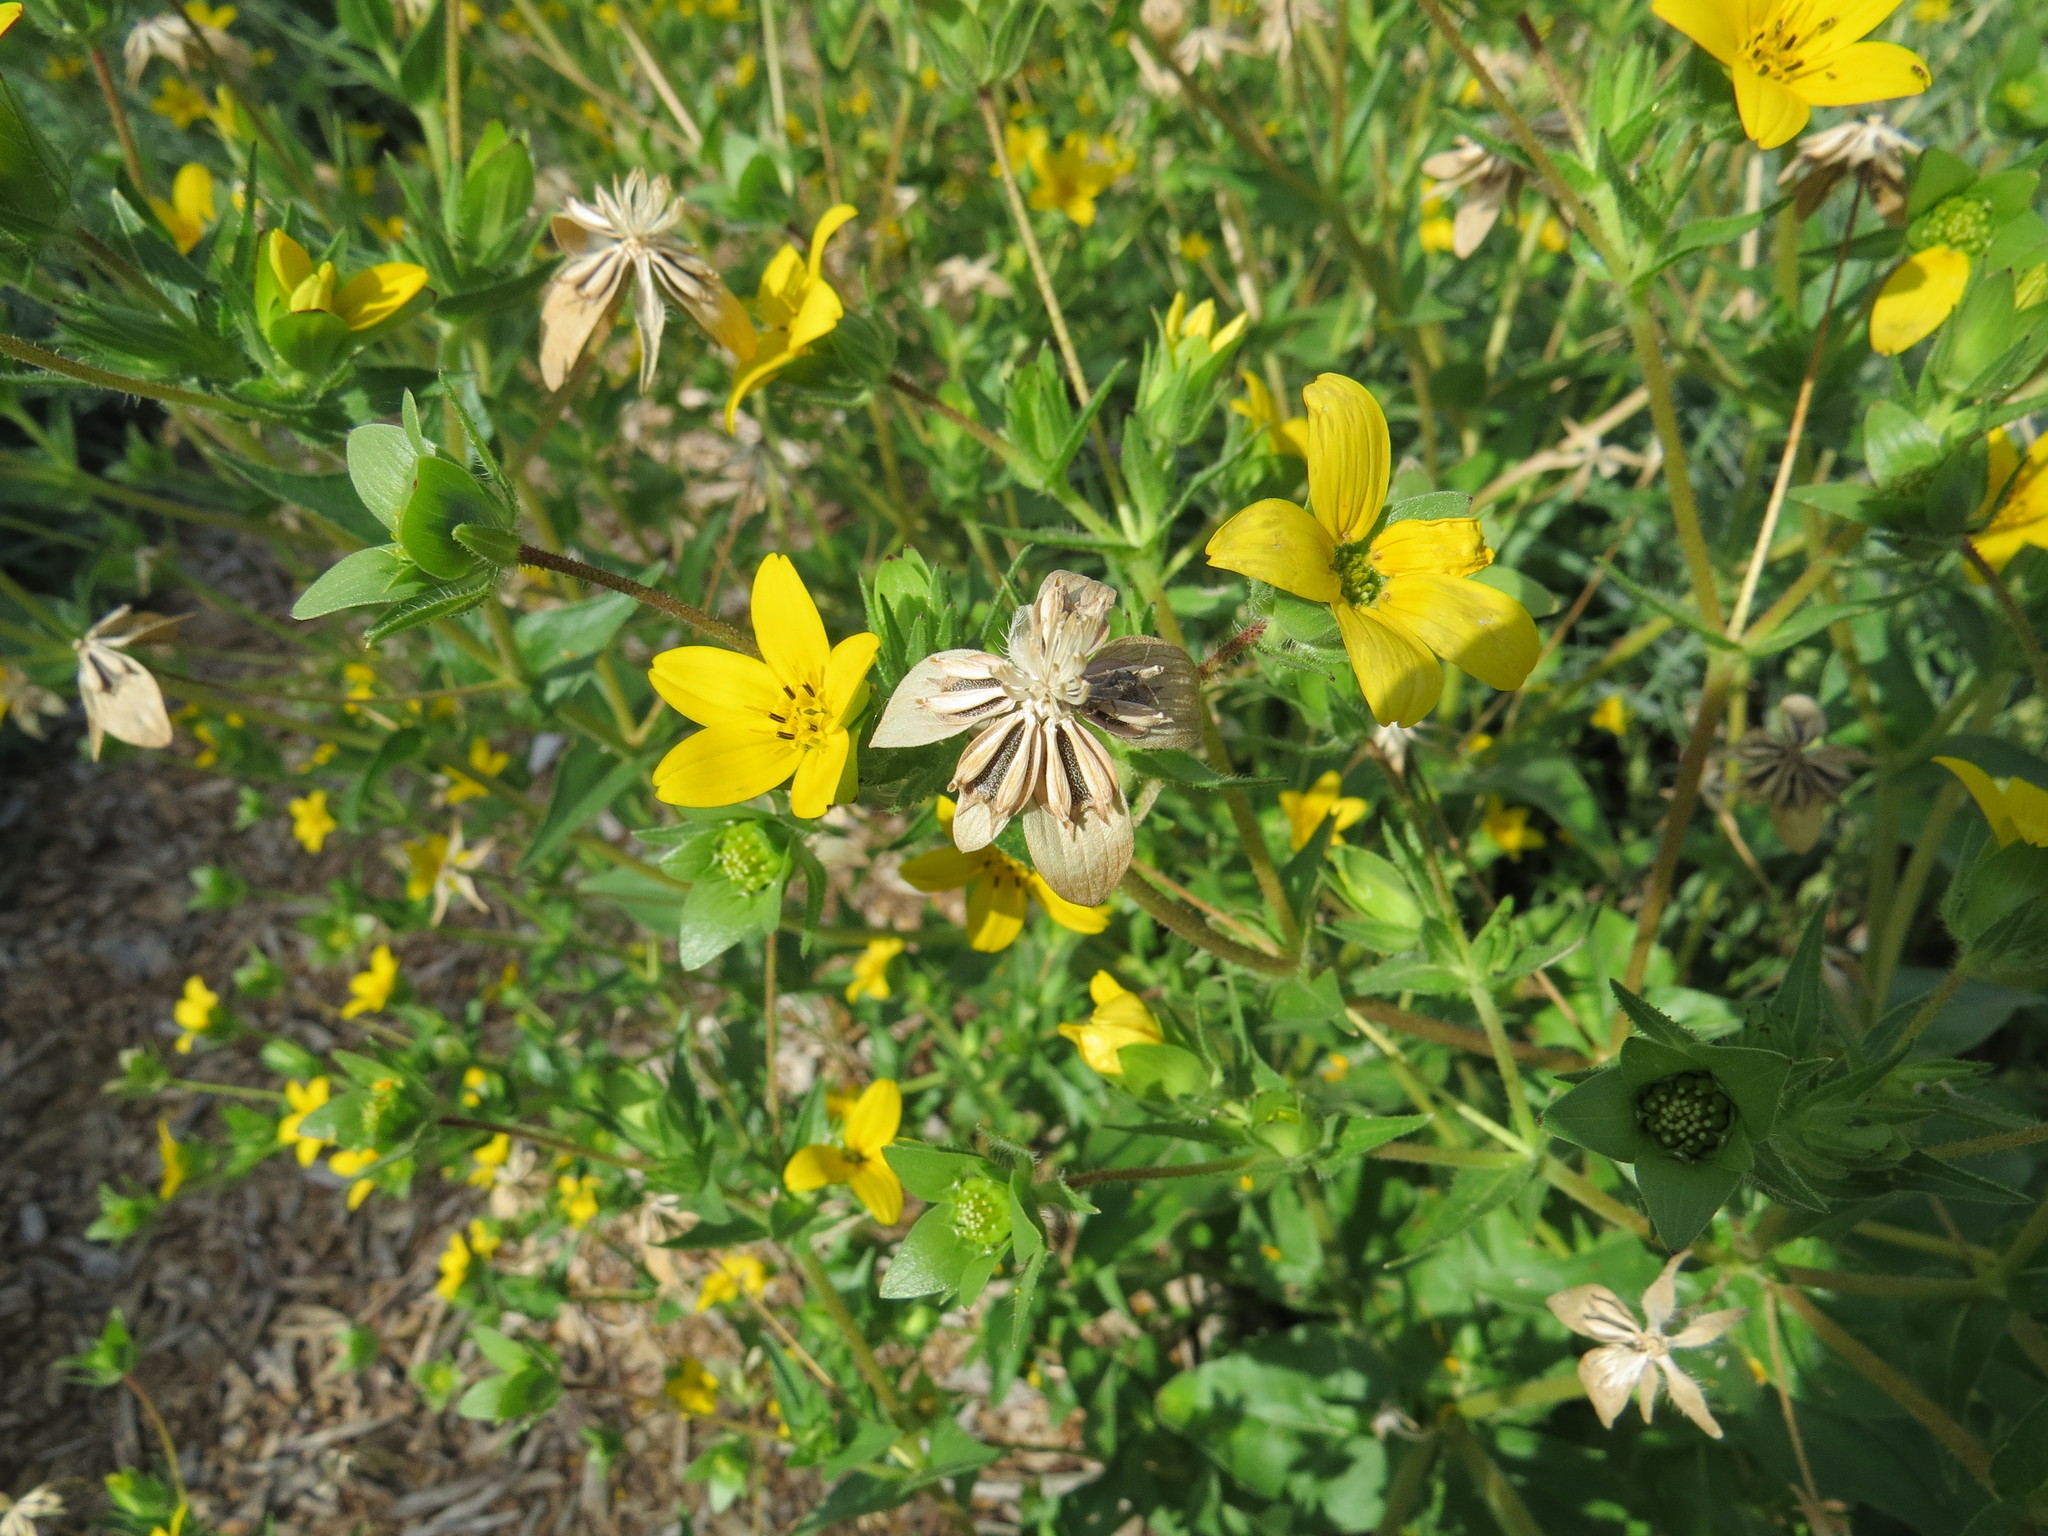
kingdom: Plantae
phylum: Tracheophyta
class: Magnoliopsida
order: Asterales
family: Asteraceae
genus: Lindheimera
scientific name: Lindheimera texana
